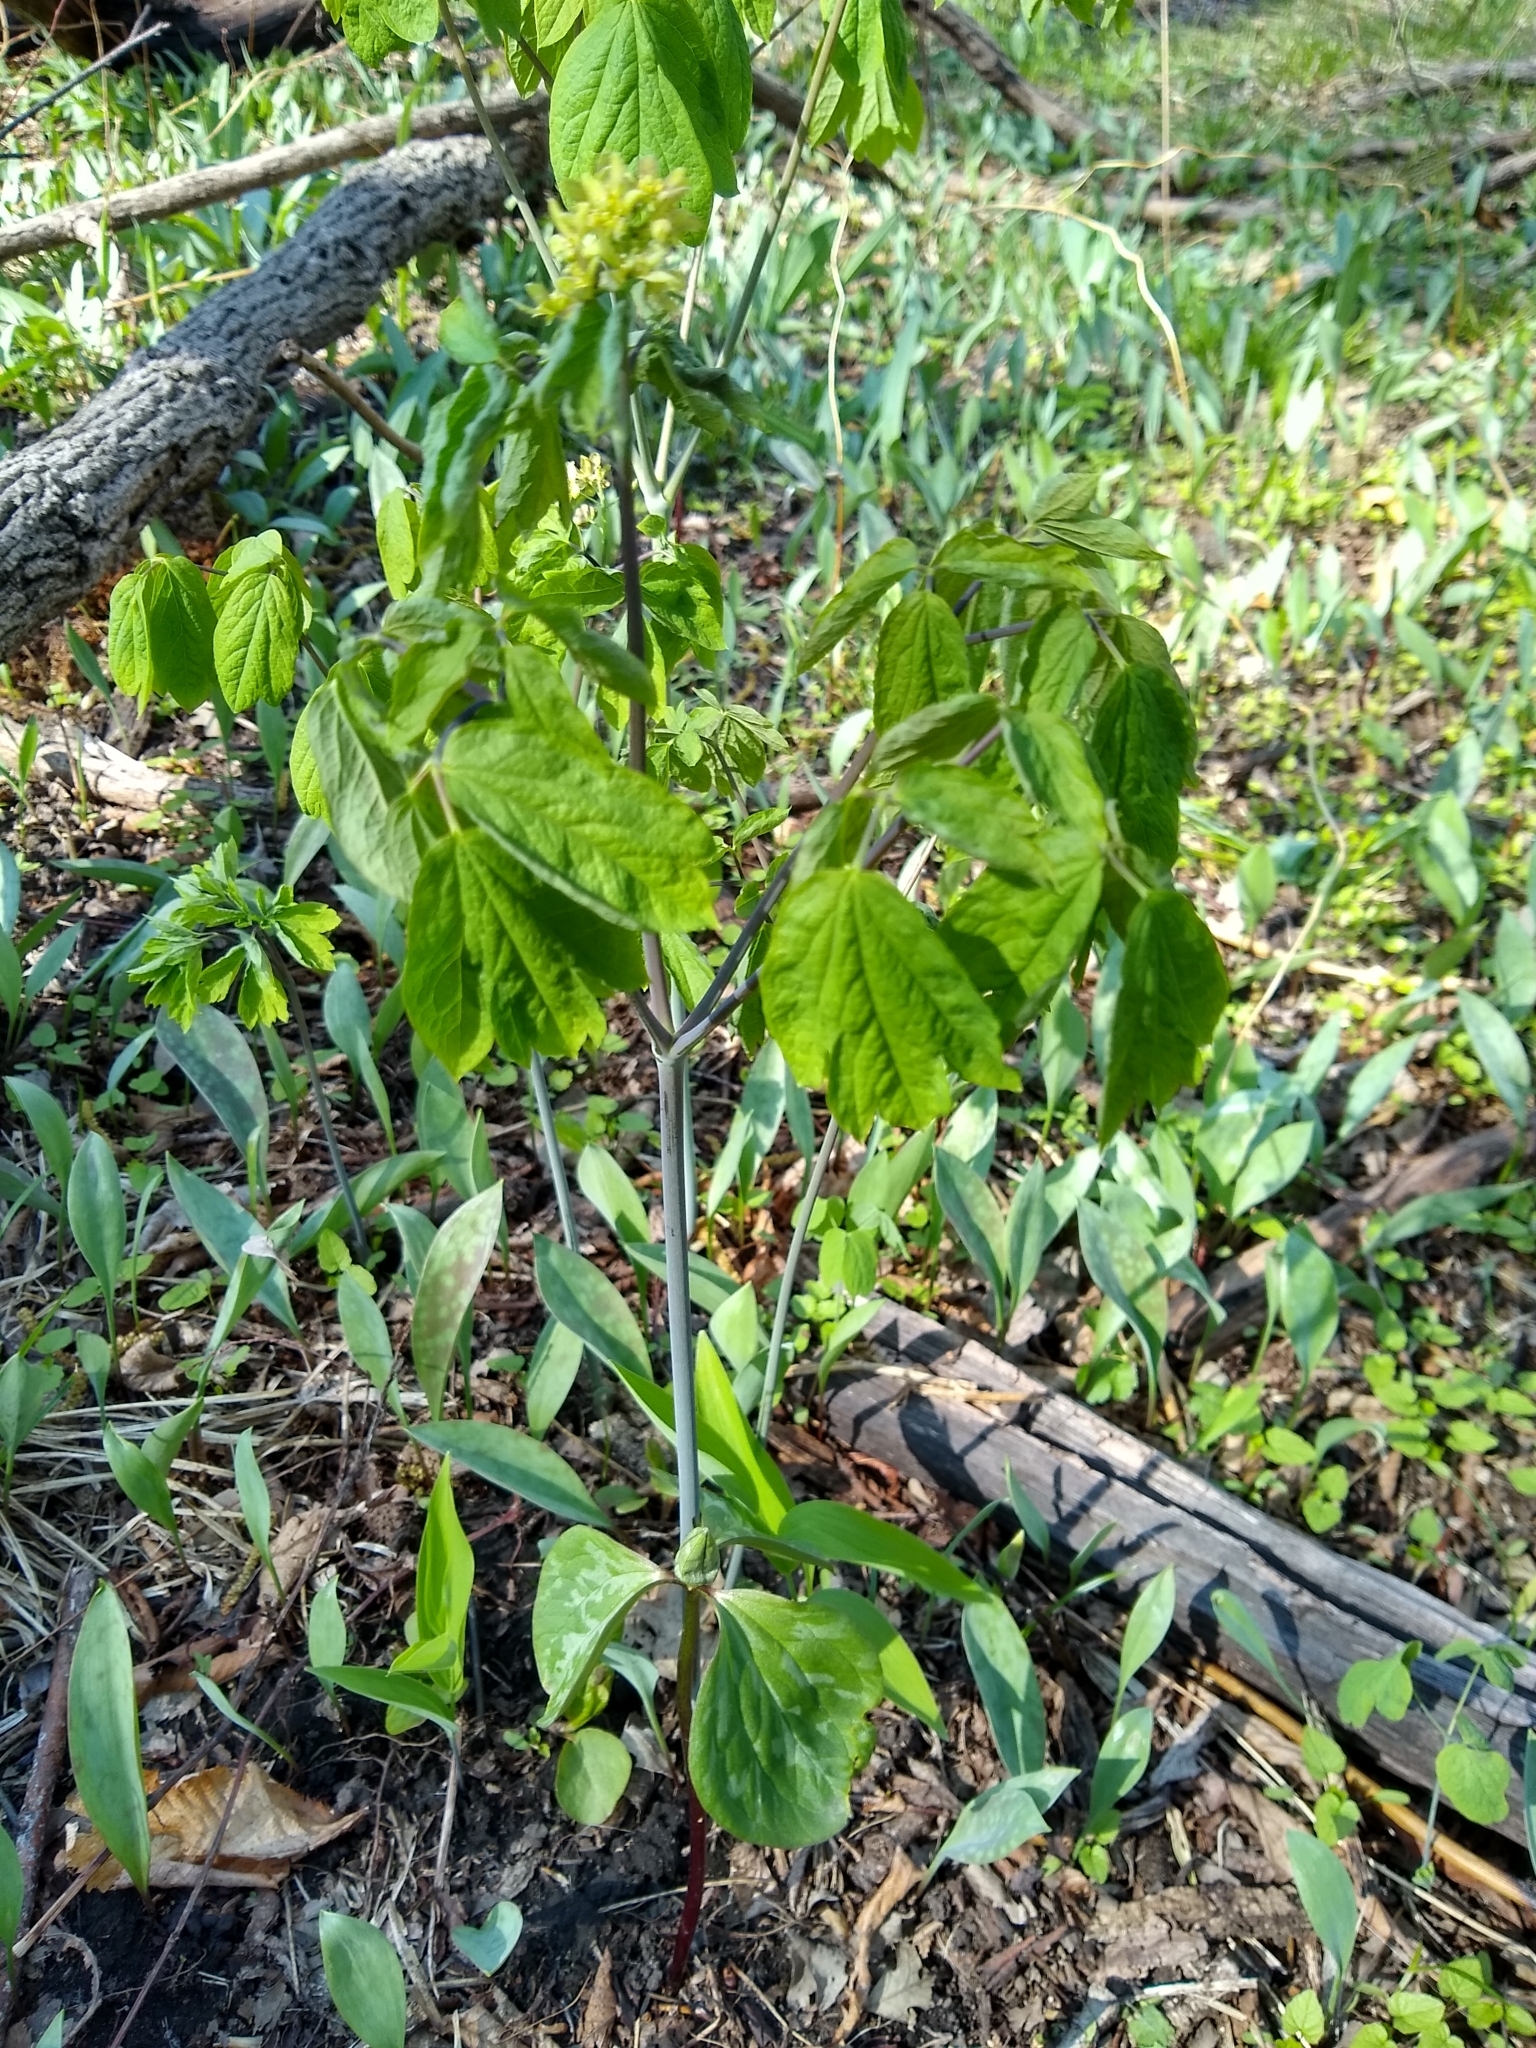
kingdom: Plantae
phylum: Tracheophyta
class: Magnoliopsida
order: Ranunculales
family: Berberidaceae
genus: Caulophyllum
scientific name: Caulophyllum thalictroides
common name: Blue cohosh
